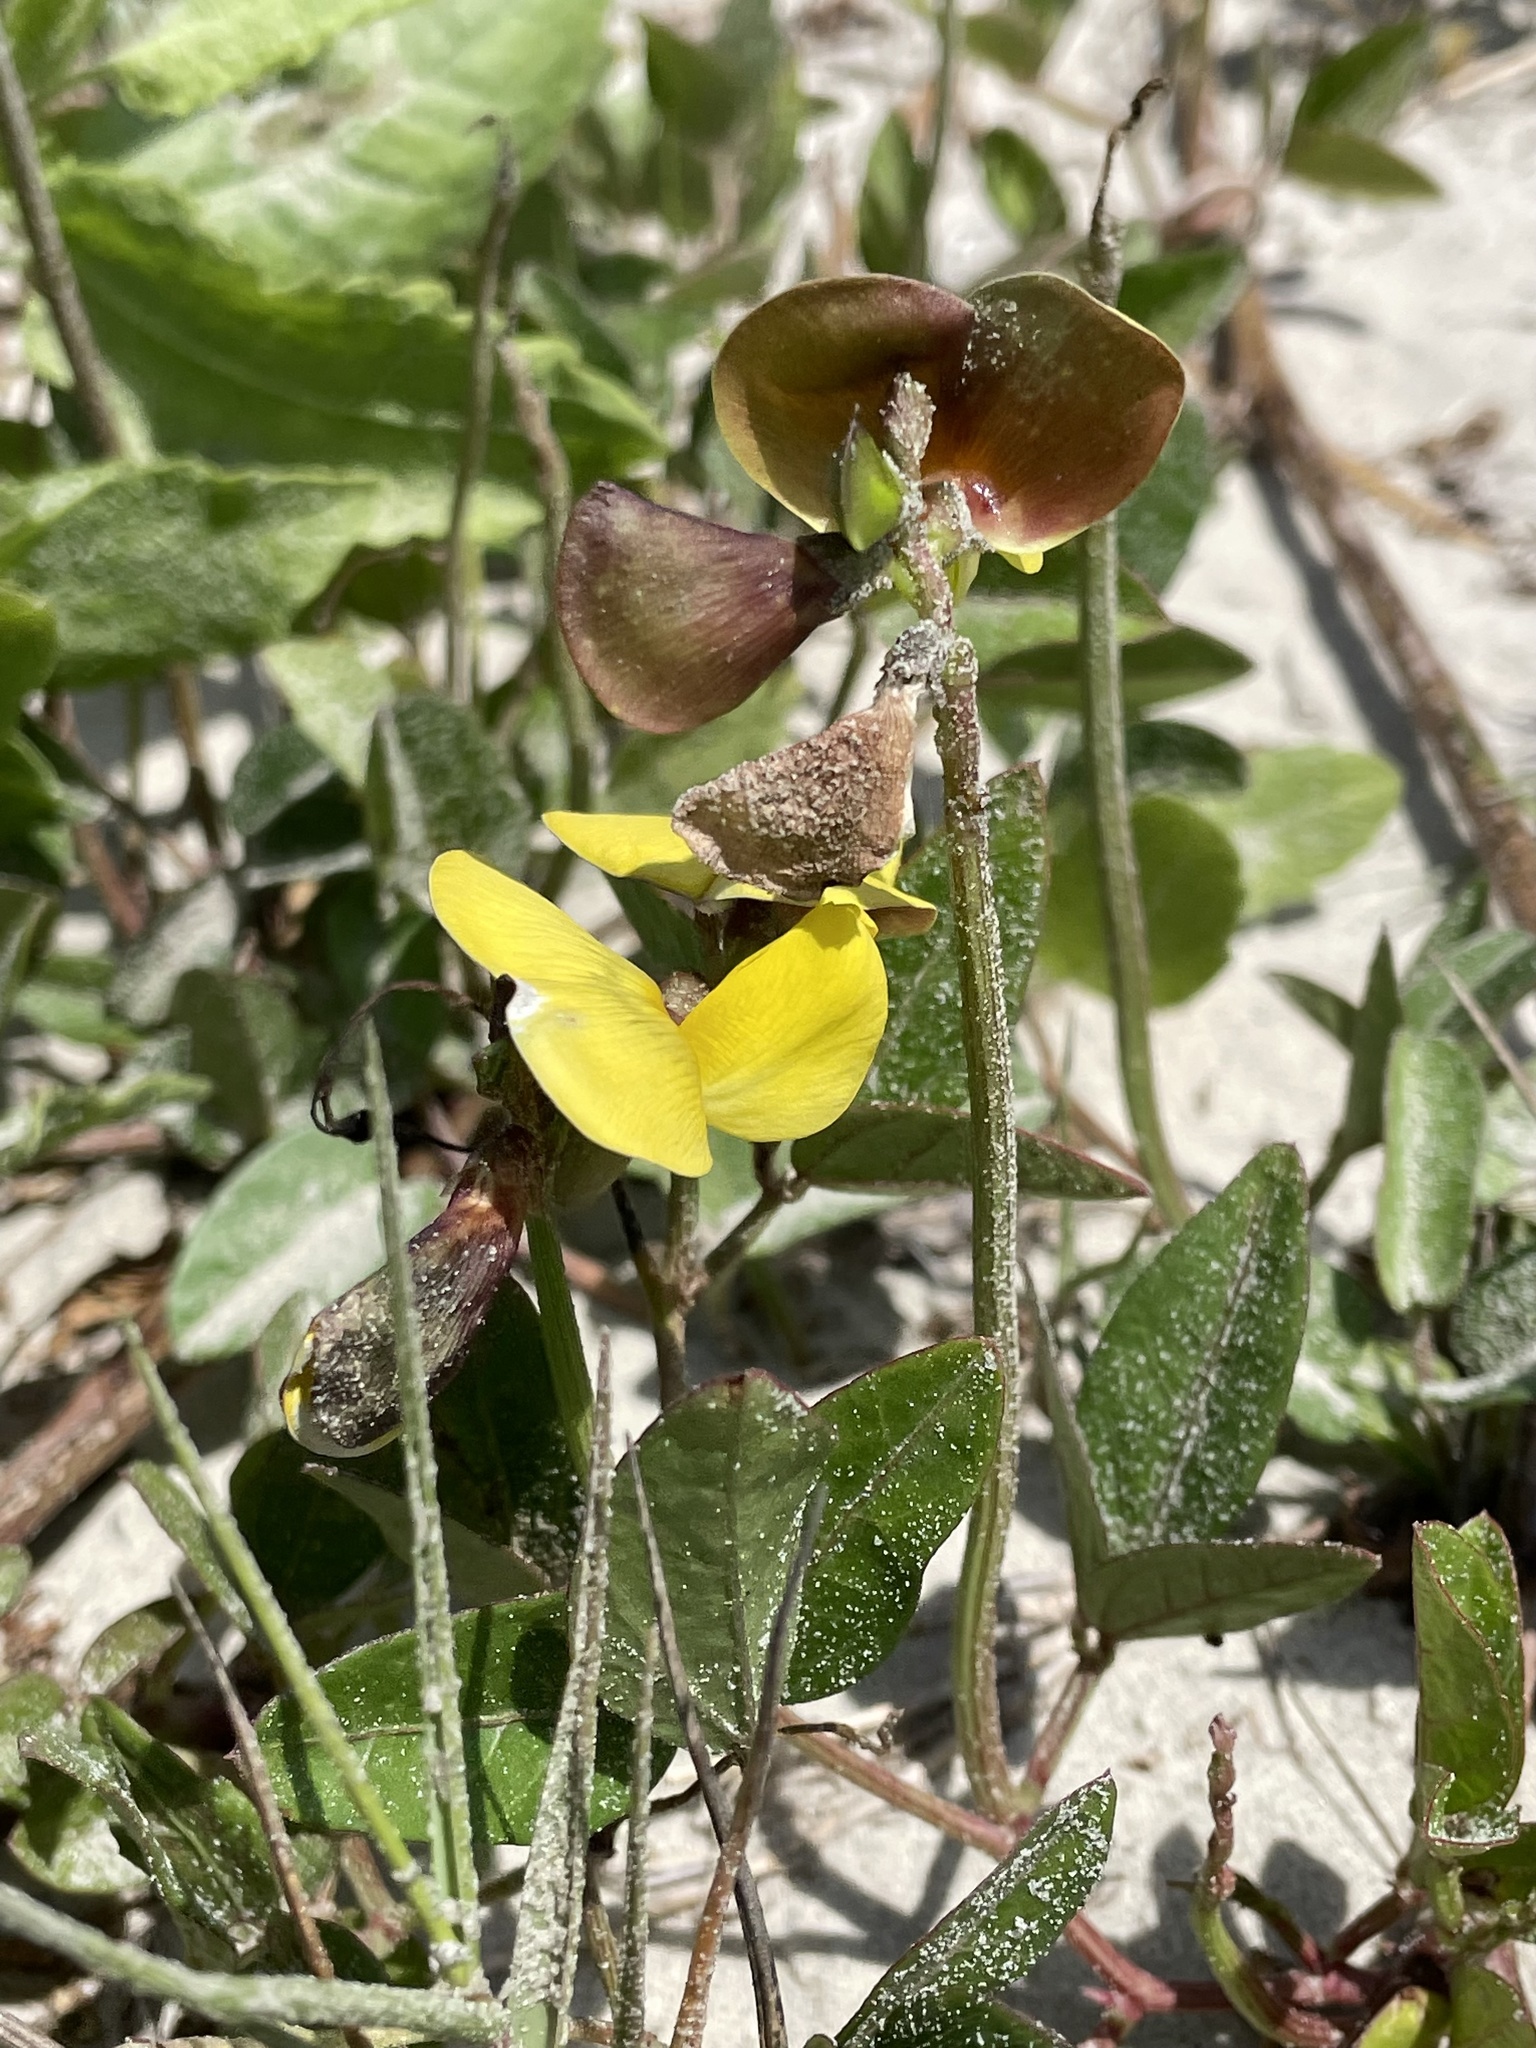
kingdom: Plantae
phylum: Tracheophyta
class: Magnoliopsida
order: Fabales
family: Fabaceae
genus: Vigna
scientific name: Vigna luteola
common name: Hairypod cowpea
